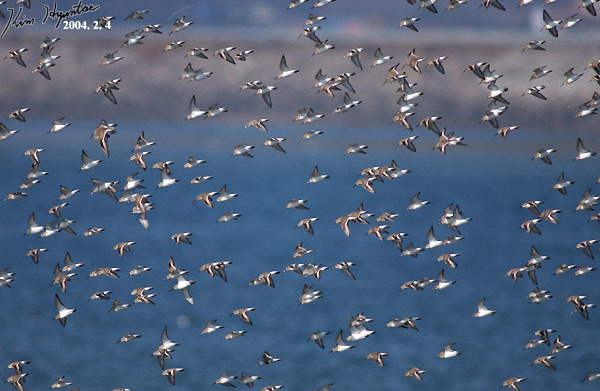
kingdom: Animalia
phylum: Chordata
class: Aves
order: Charadriiformes
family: Scolopacidae
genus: Calidris
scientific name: Calidris alpina
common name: Dunlin
